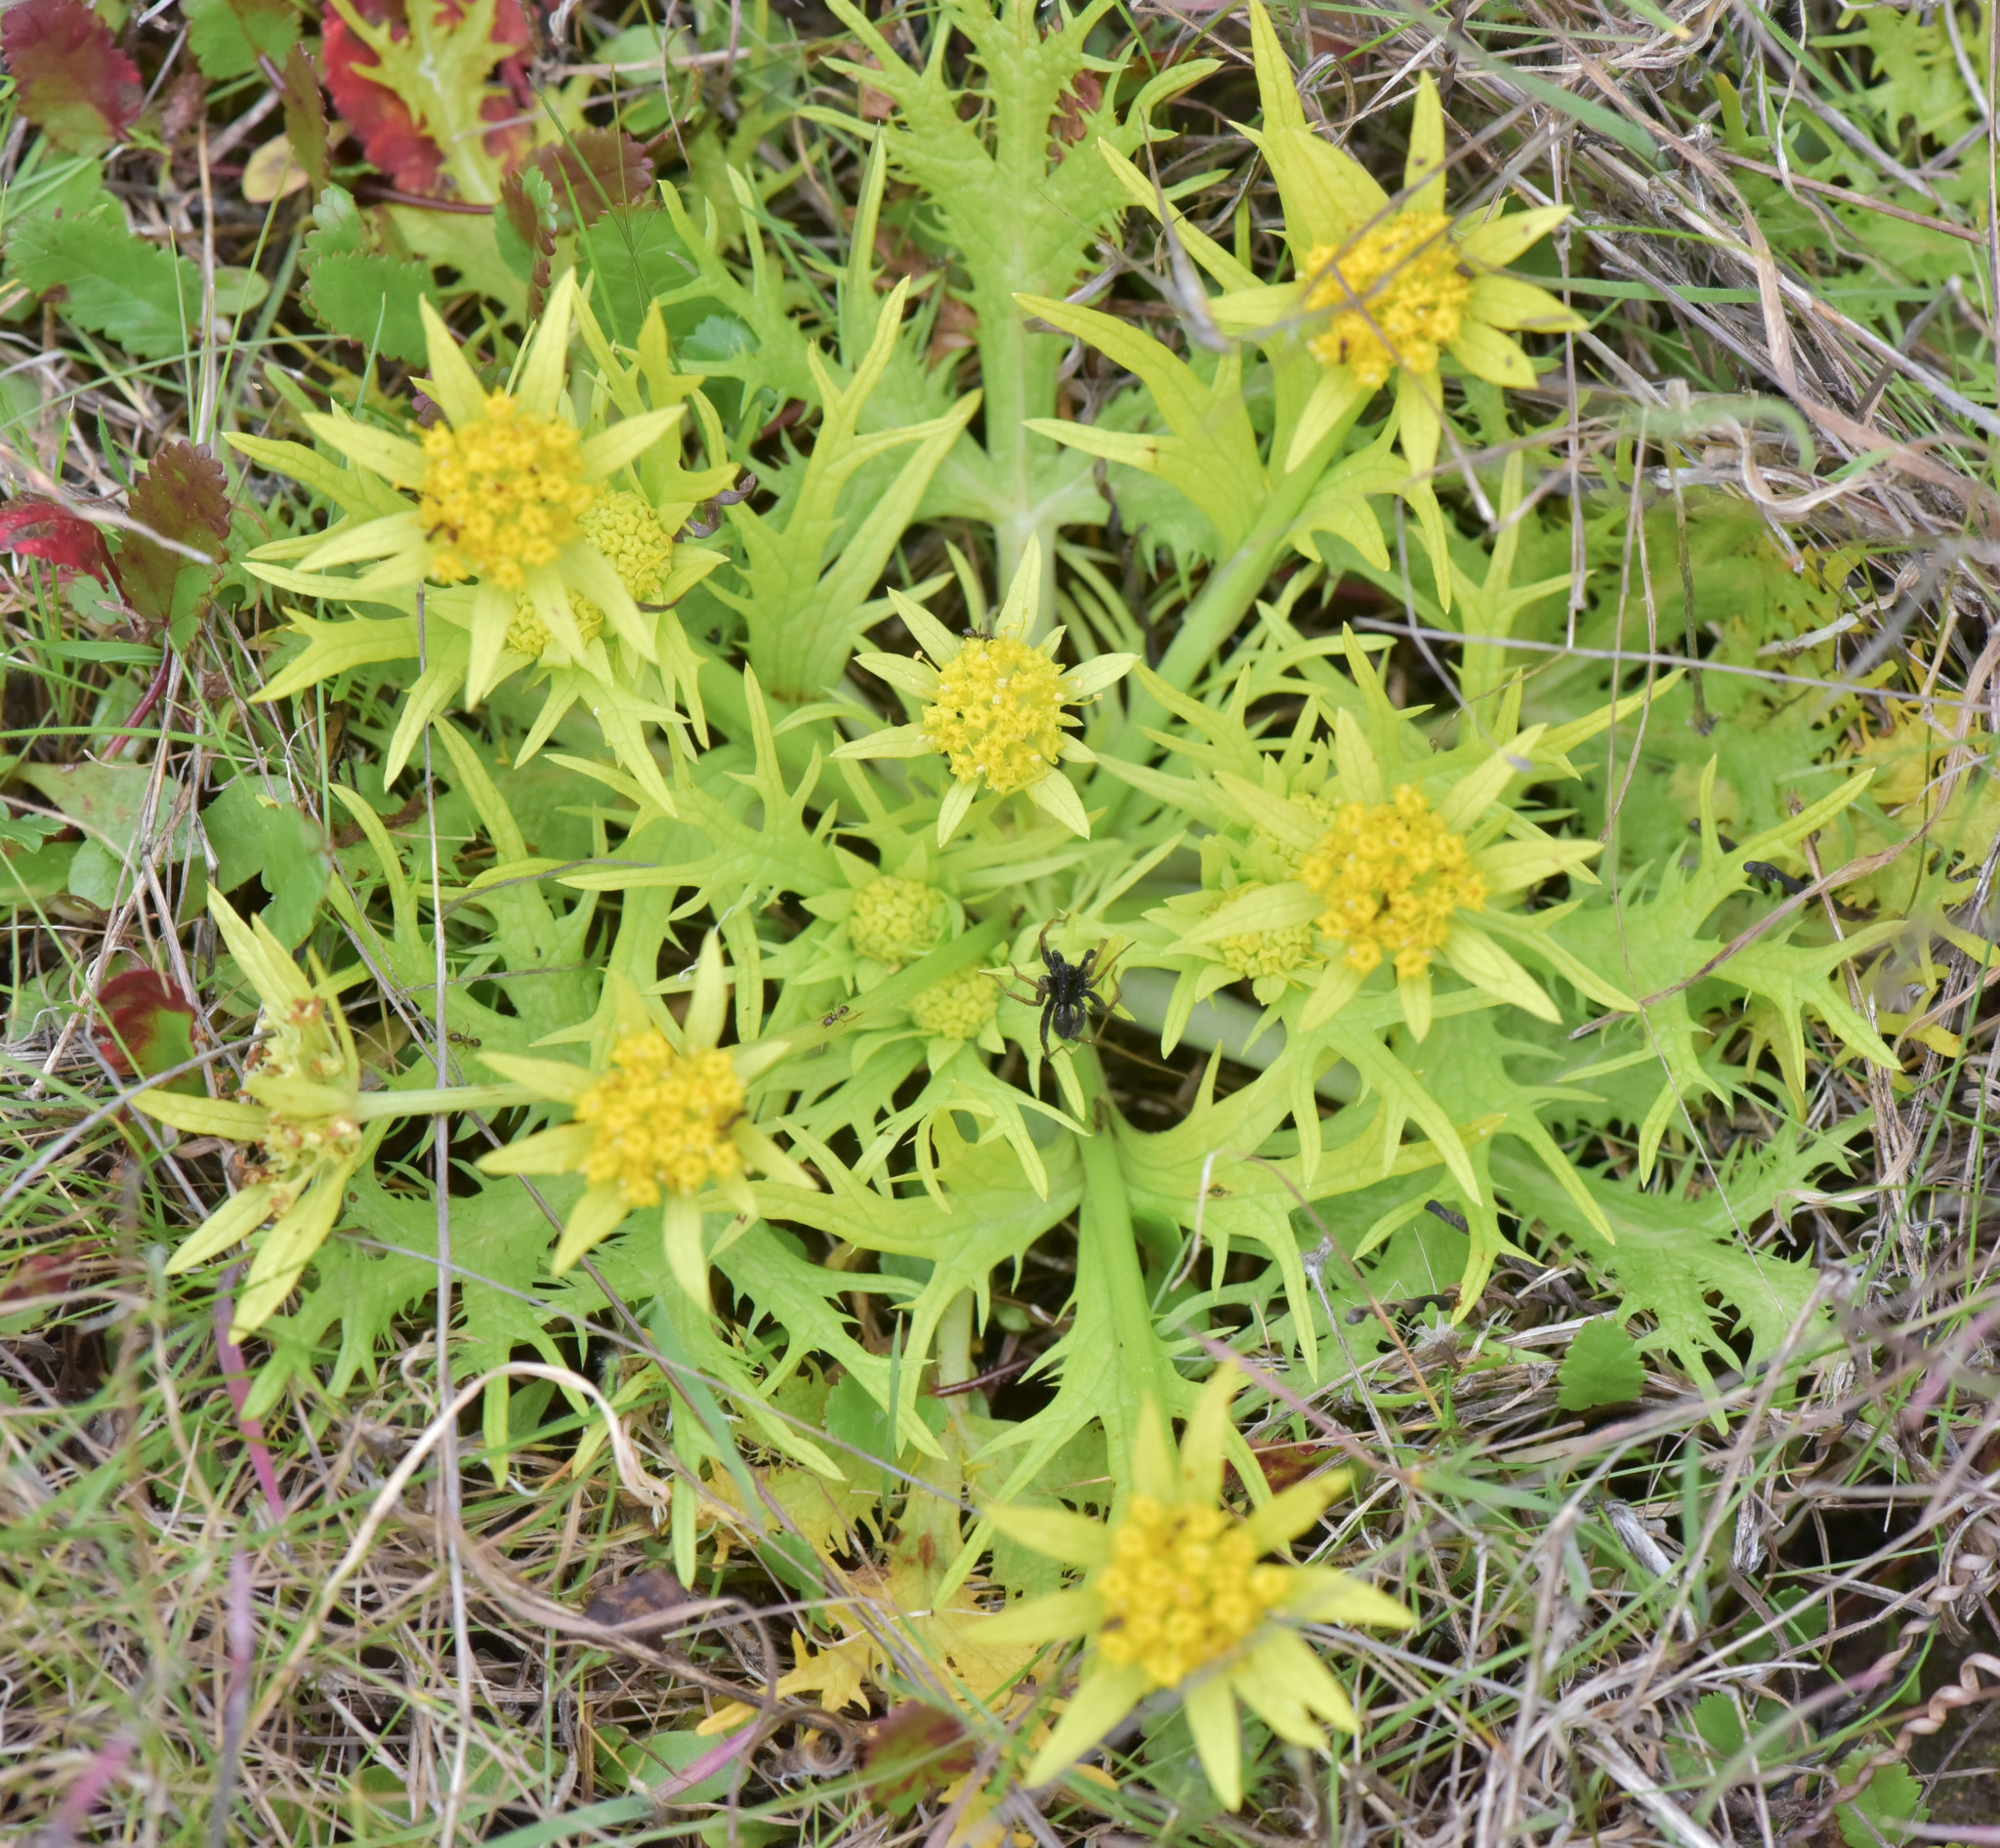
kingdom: Plantae
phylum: Tracheophyta
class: Magnoliopsida
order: Apiales
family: Apiaceae
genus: Sanicula
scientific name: Sanicula arctopoides
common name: Footsteps-of-spring
